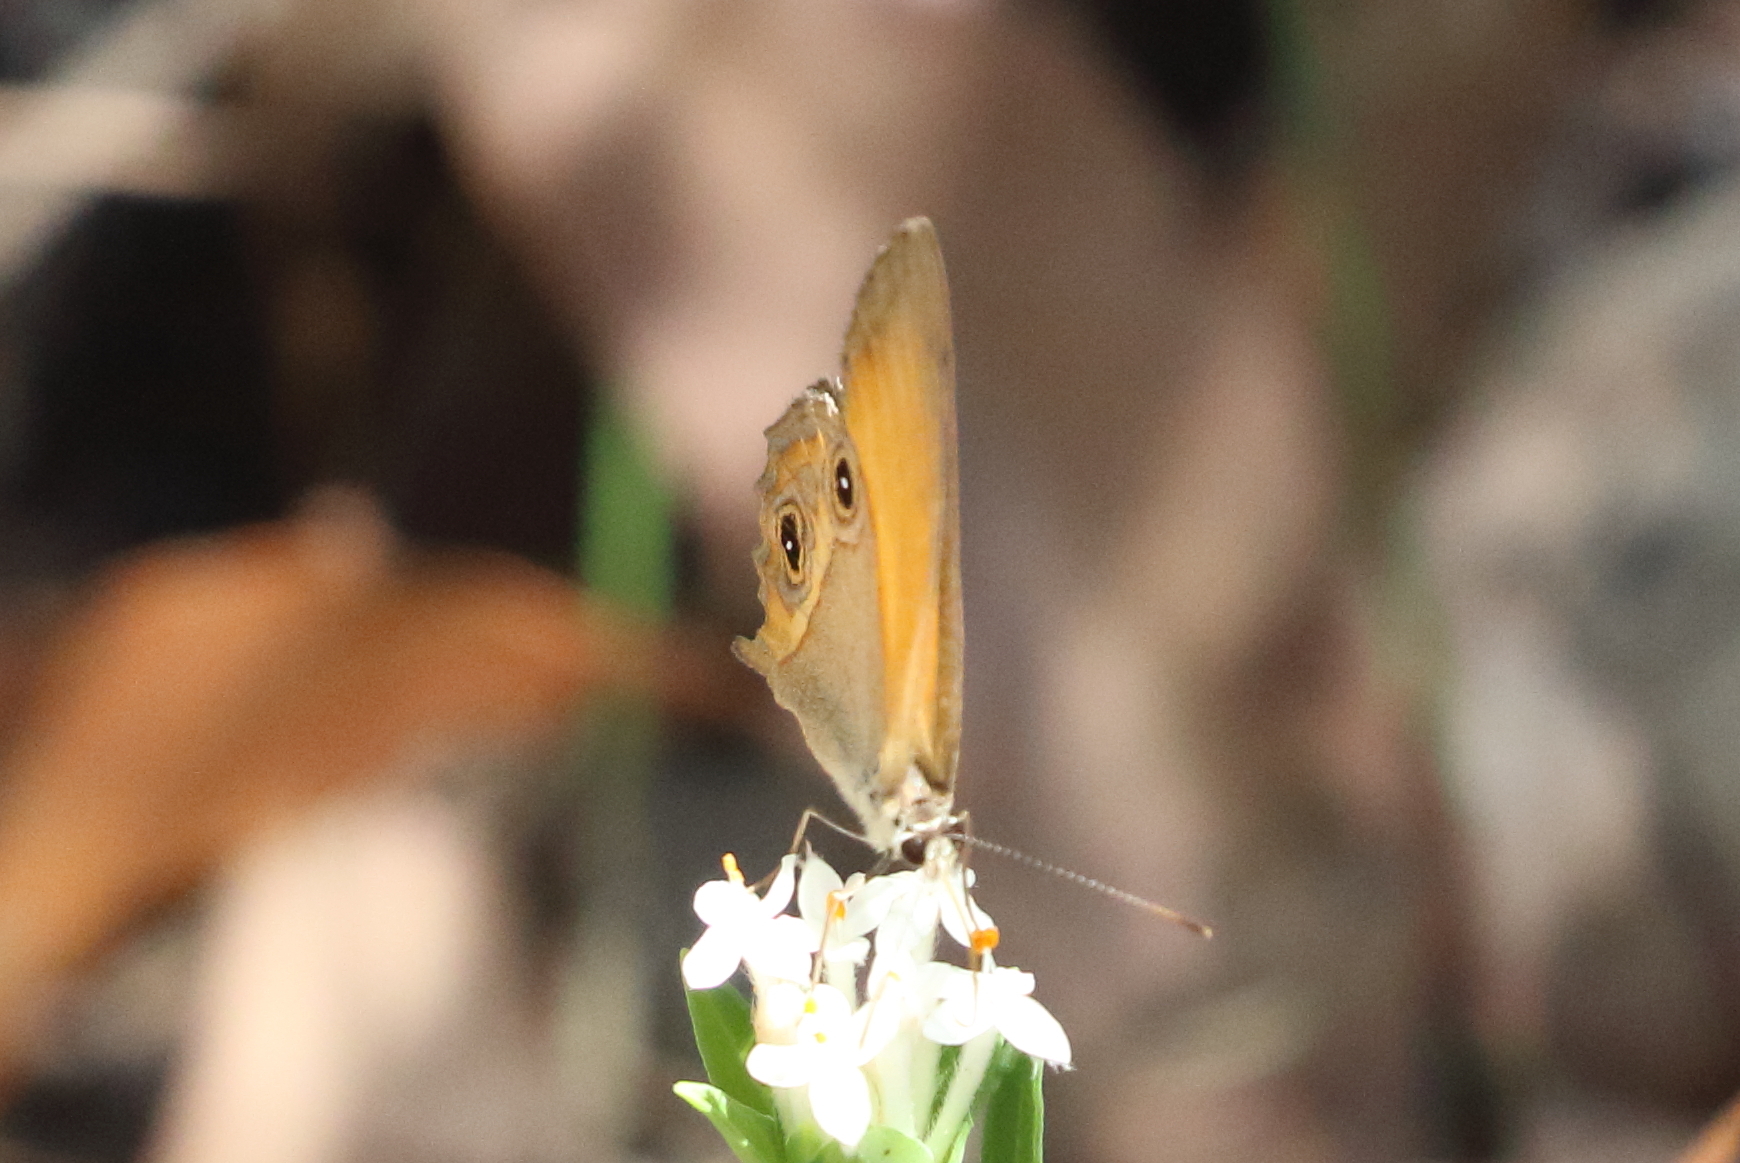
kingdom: Animalia
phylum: Arthropoda
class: Insecta
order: Lepidoptera
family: Nymphalidae
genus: Hypocysta
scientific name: Hypocysta adiante
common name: Orange ringlet
